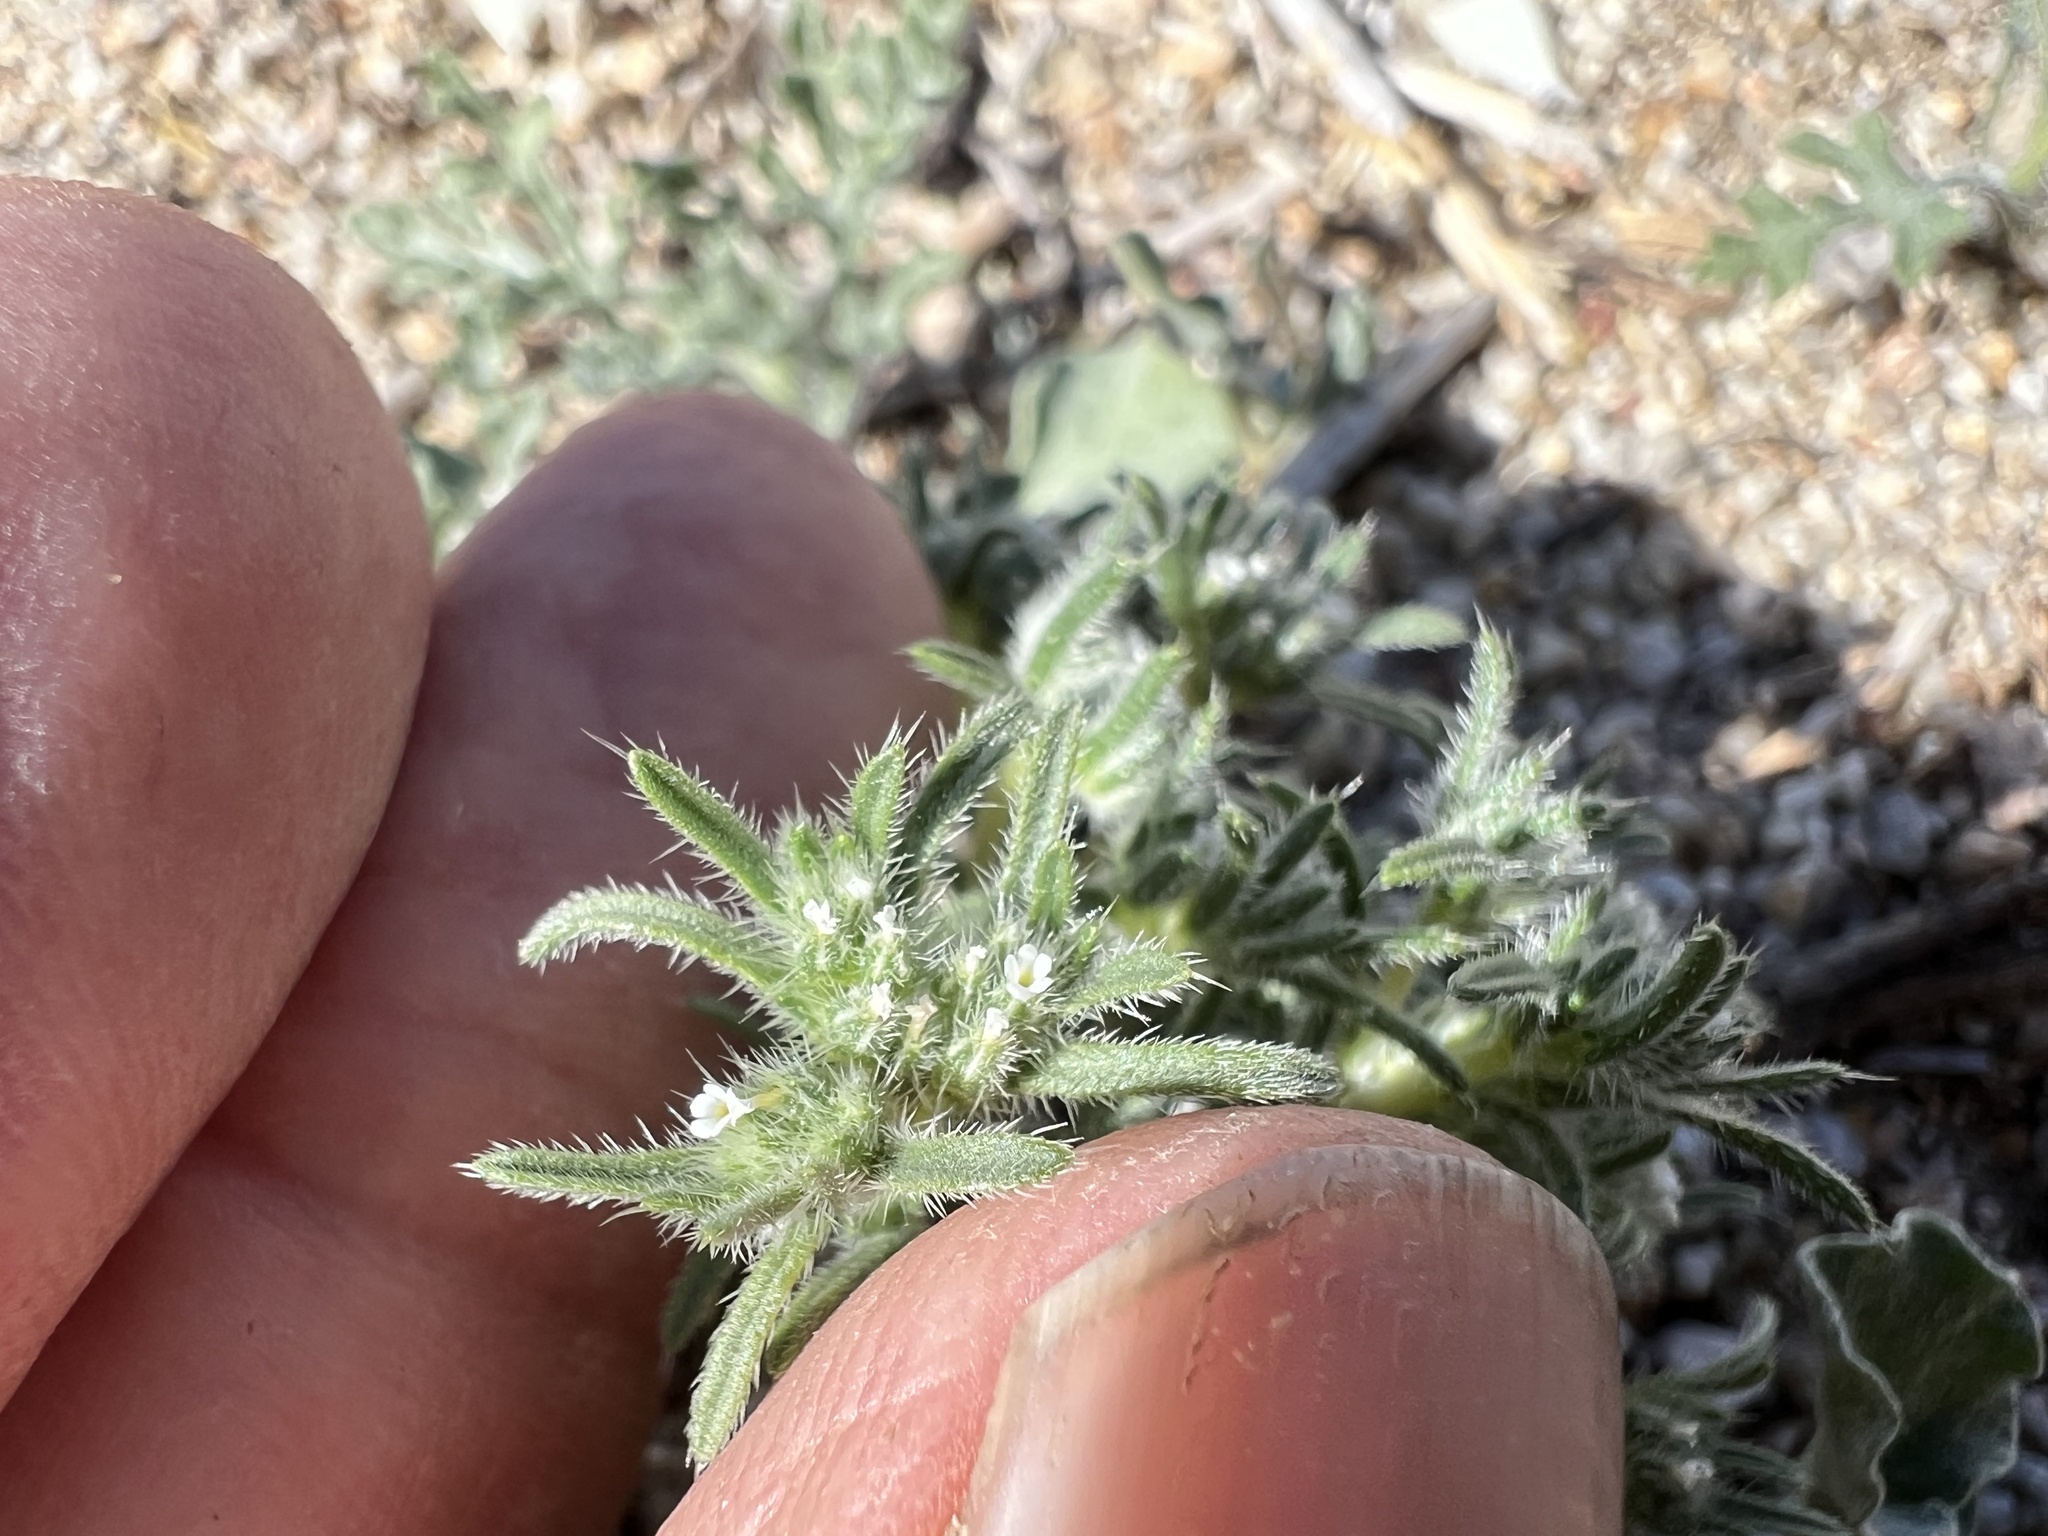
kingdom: Plantae
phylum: Tracheophyta
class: Magnoliopsida
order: Boraginales
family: Boraginaceae
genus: Greeneocharis
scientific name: Greeneocharis circumscissa
